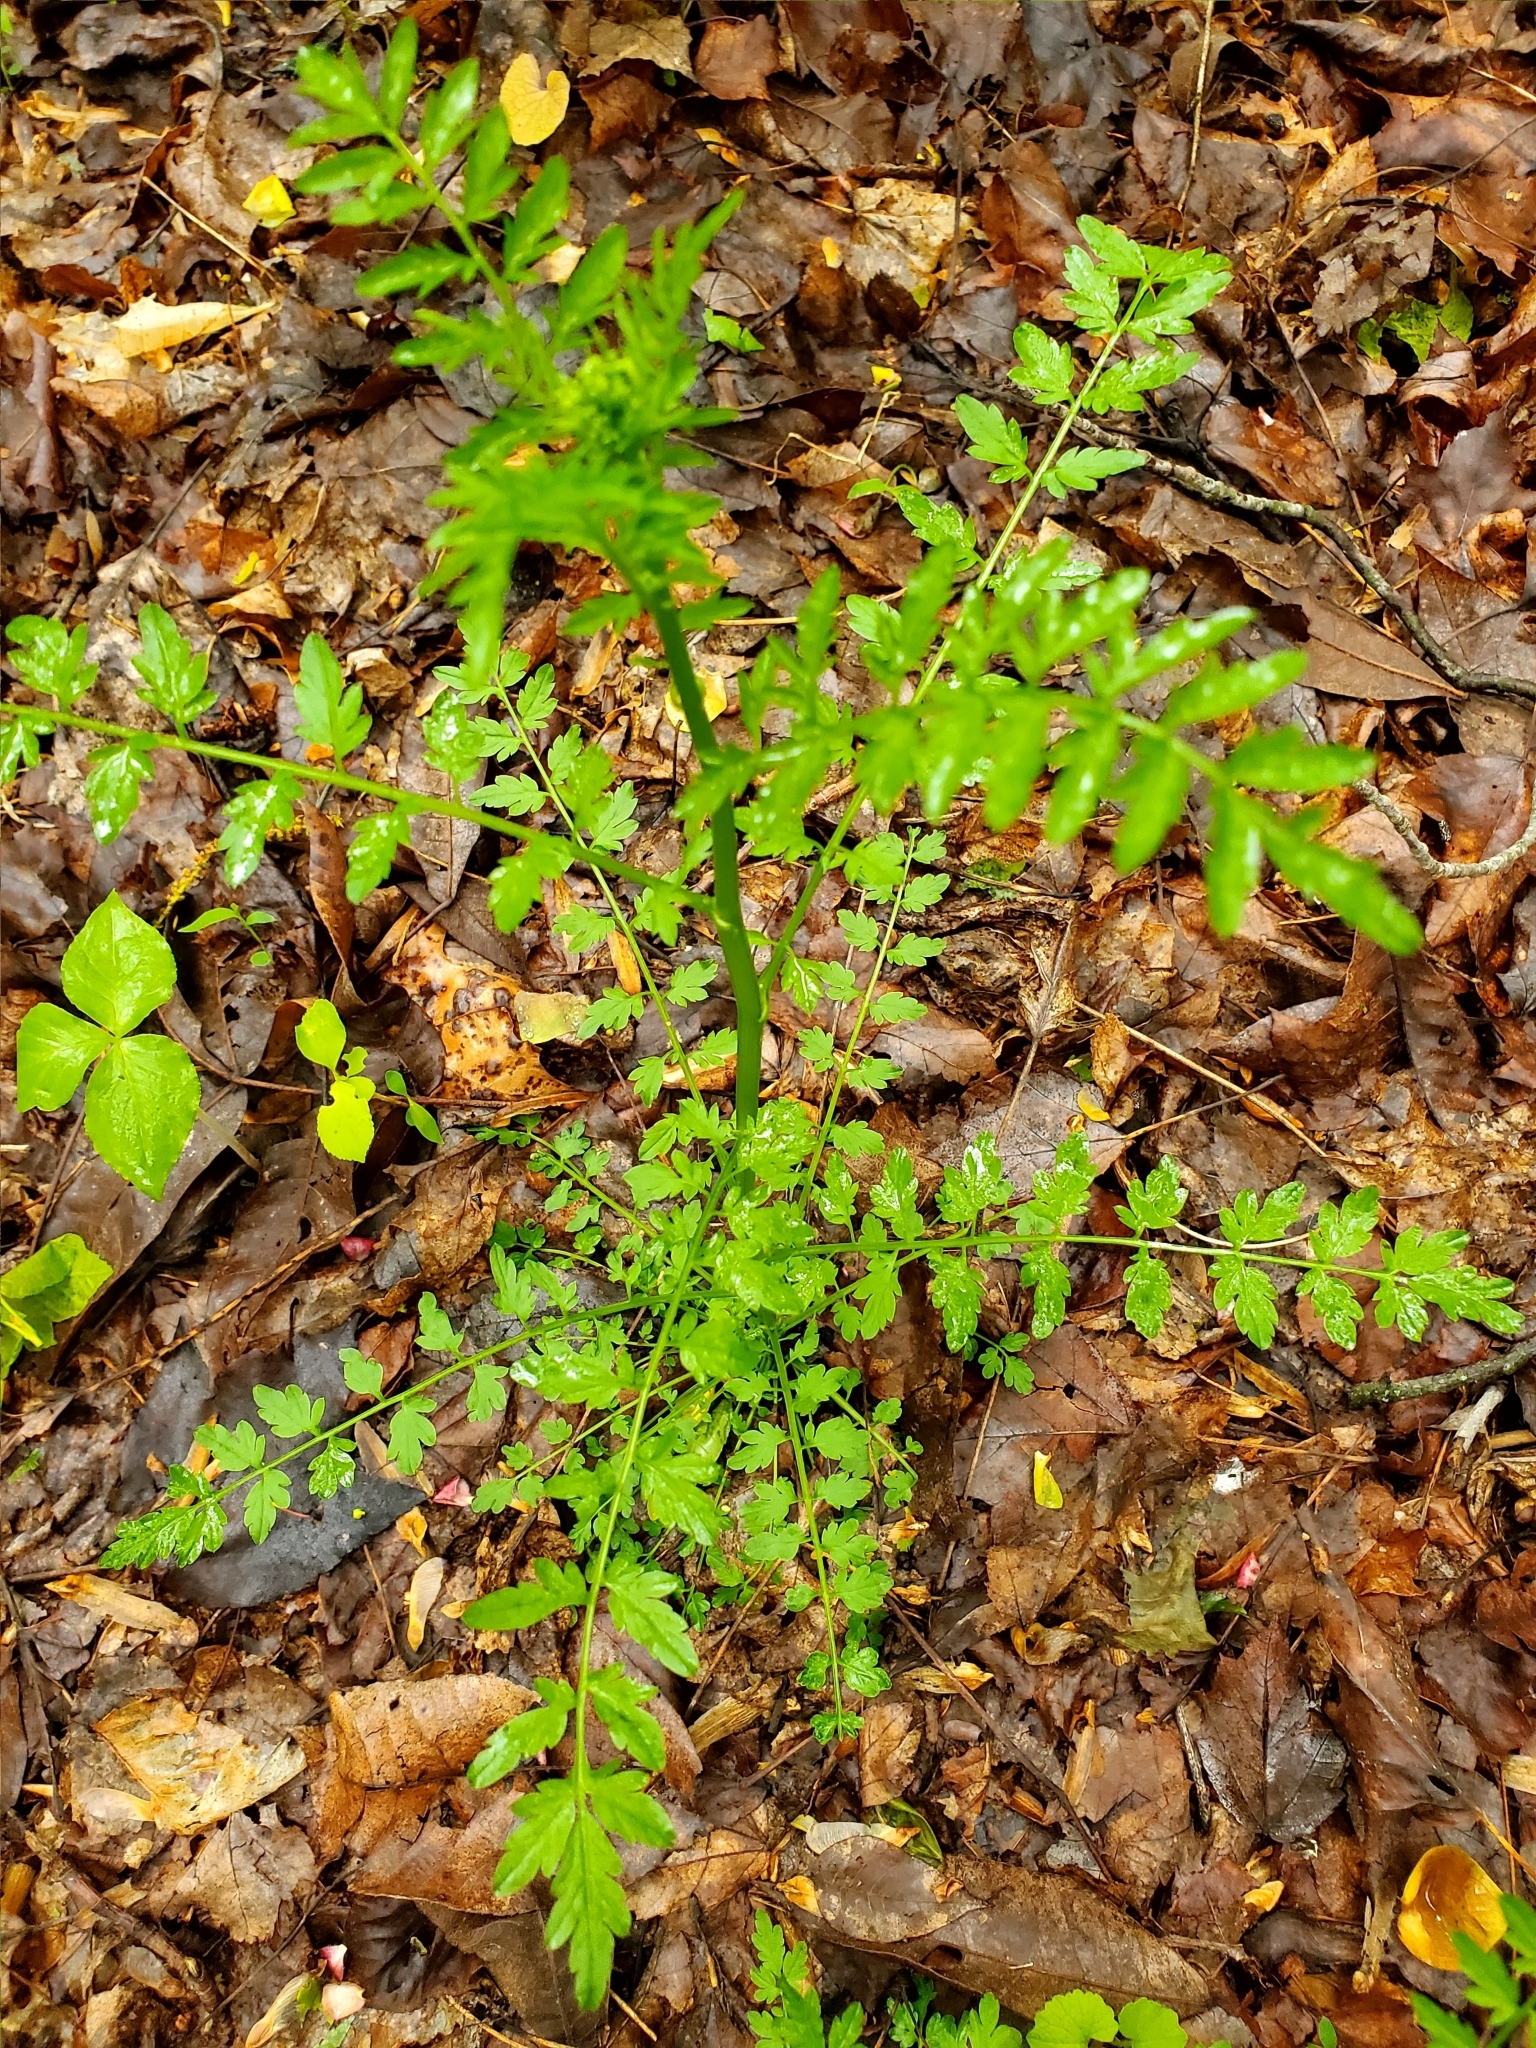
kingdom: Plantae
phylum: Tracheophyta
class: Magnoliopsida
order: Brassicales
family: Brassicaceae
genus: Cardamine
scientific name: Cardamine impatiens
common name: Narrow-leaved bitter-cress
